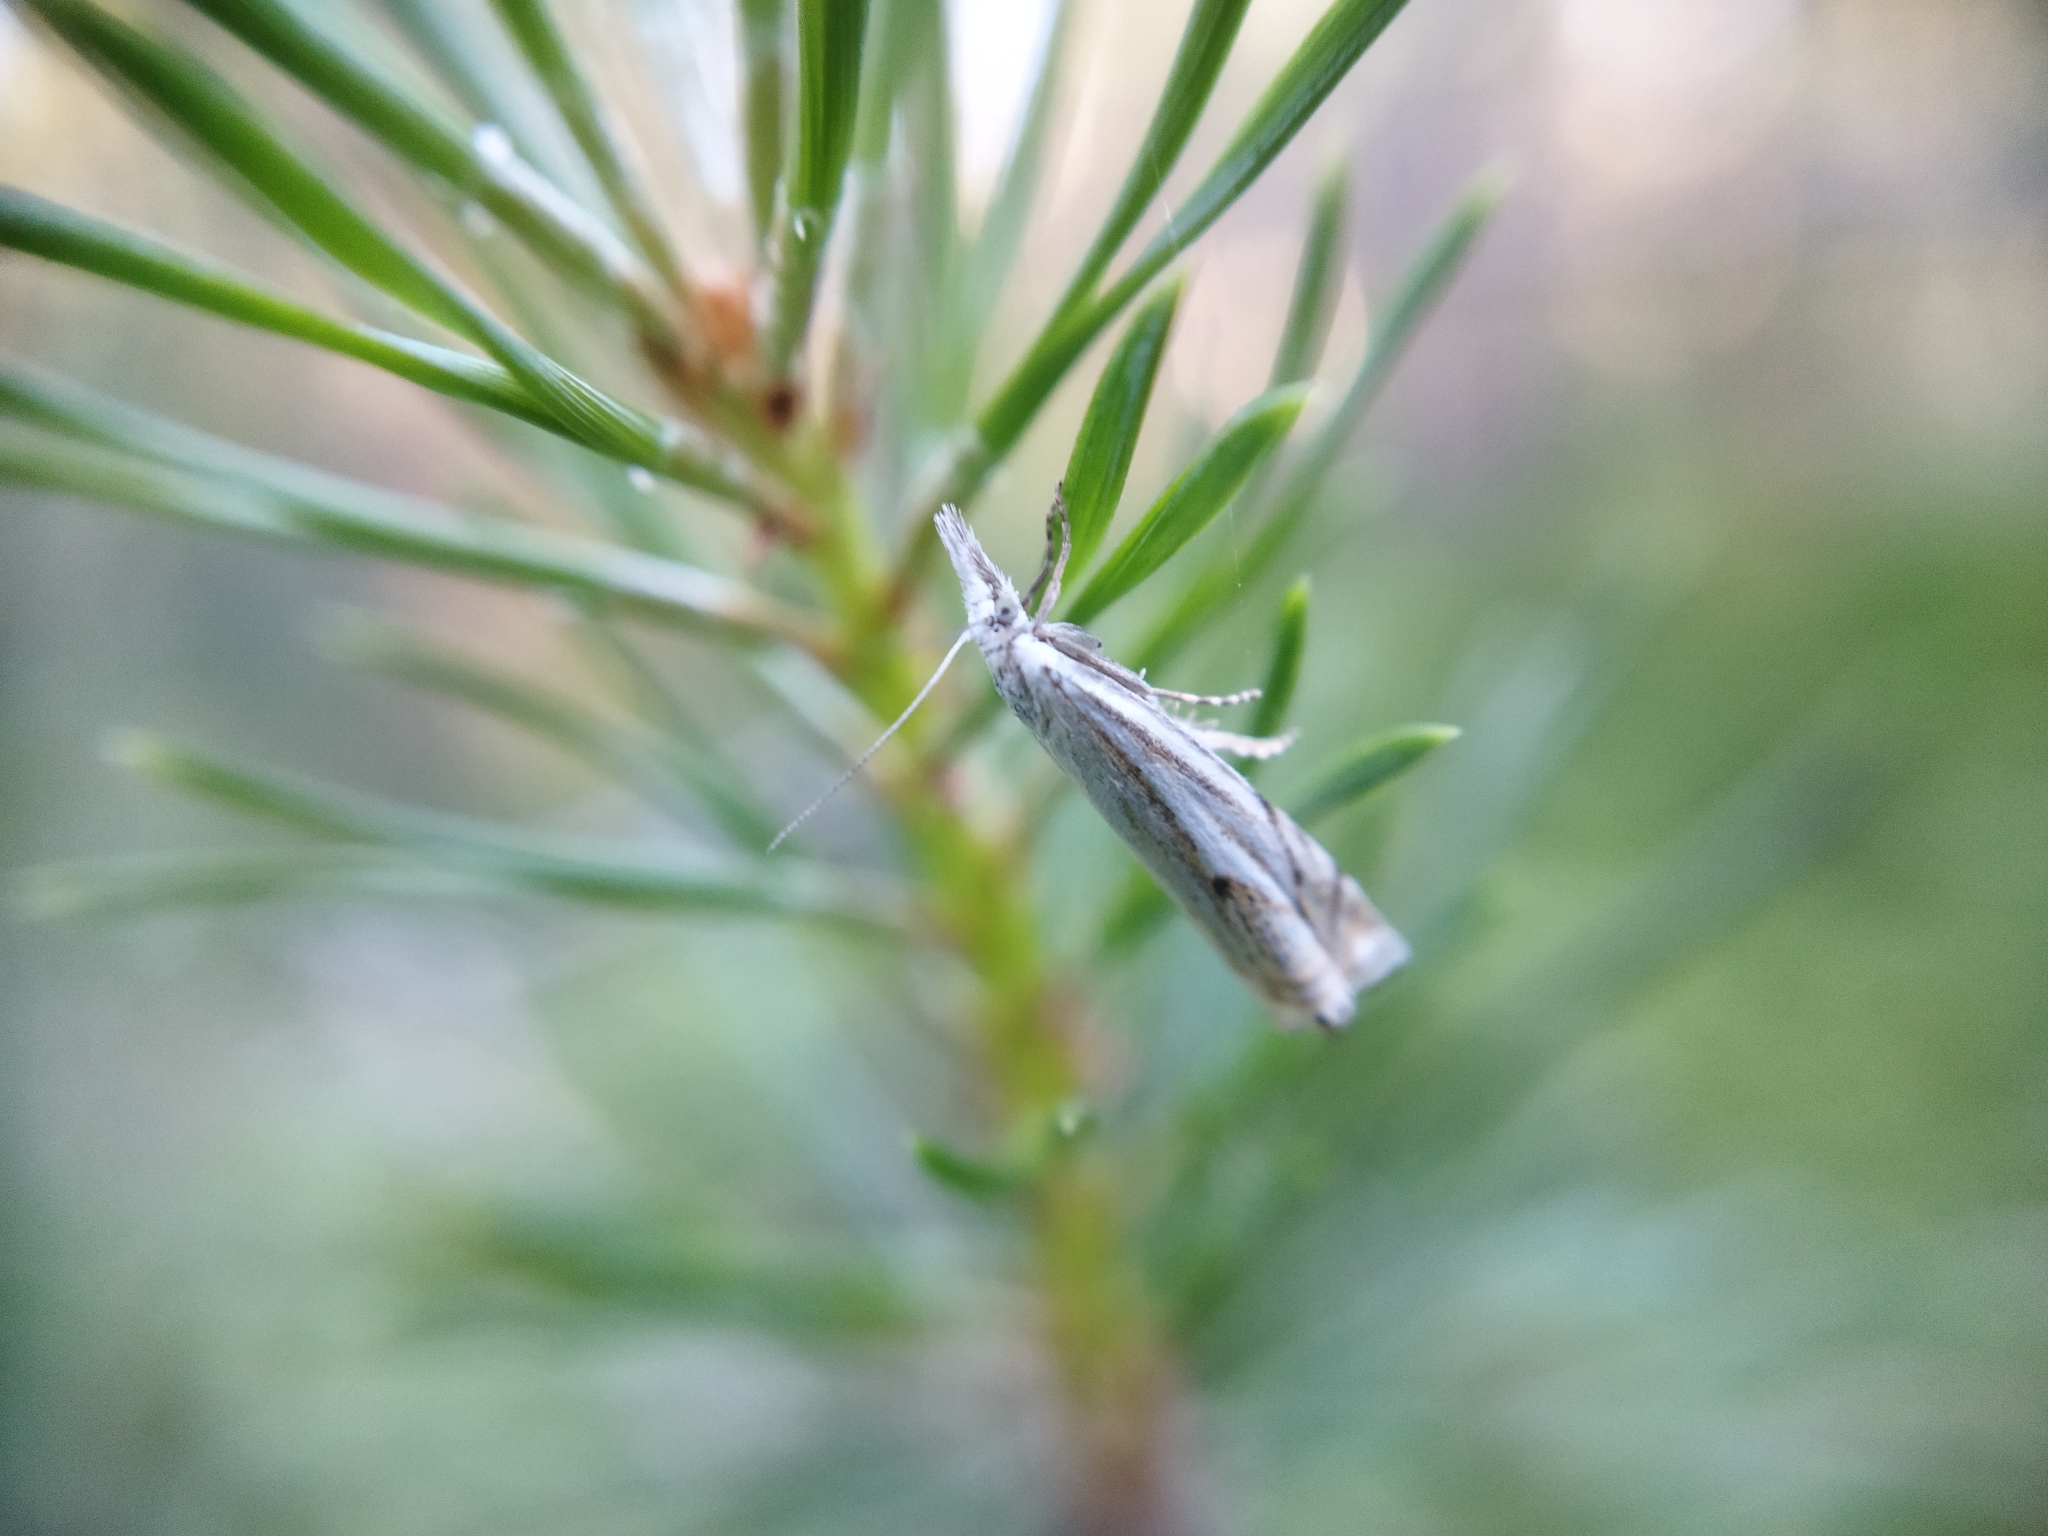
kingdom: Animalia
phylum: Arthropoda
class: Insecta
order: Lepidoptera
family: Crambidae
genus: Crambus
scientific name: Crambus nemorella
